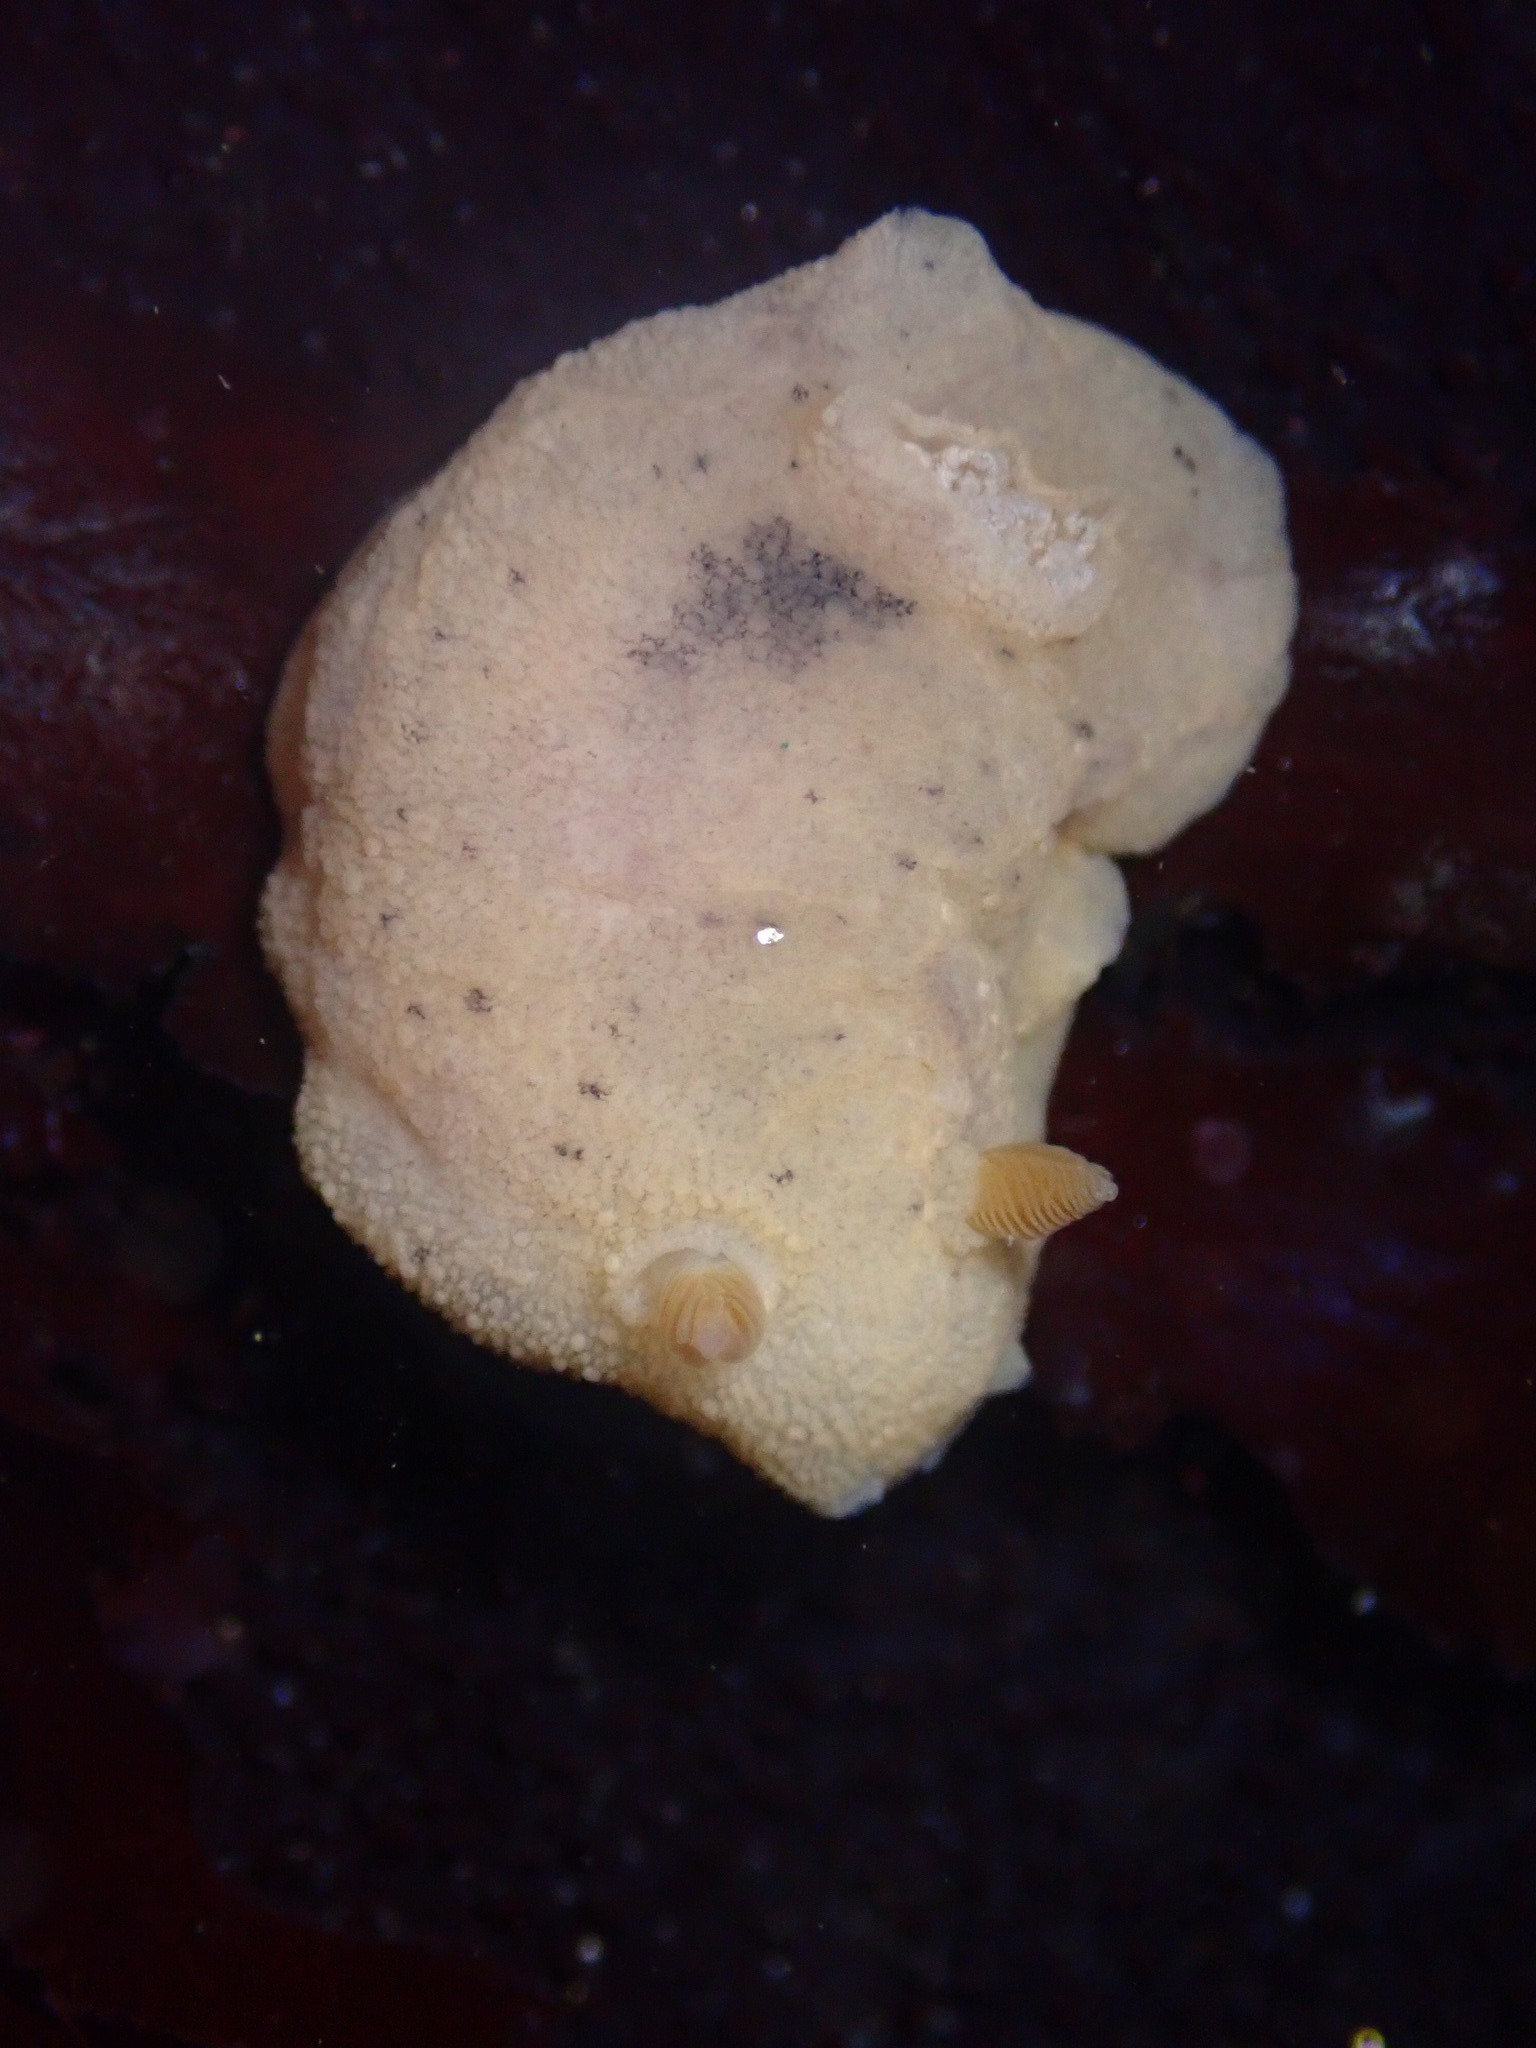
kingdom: Animalia
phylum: Mollusca
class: Gastropoda
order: Nudibranchia
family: Discodorididae
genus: Geitodoris
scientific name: Geitodoris heathi
